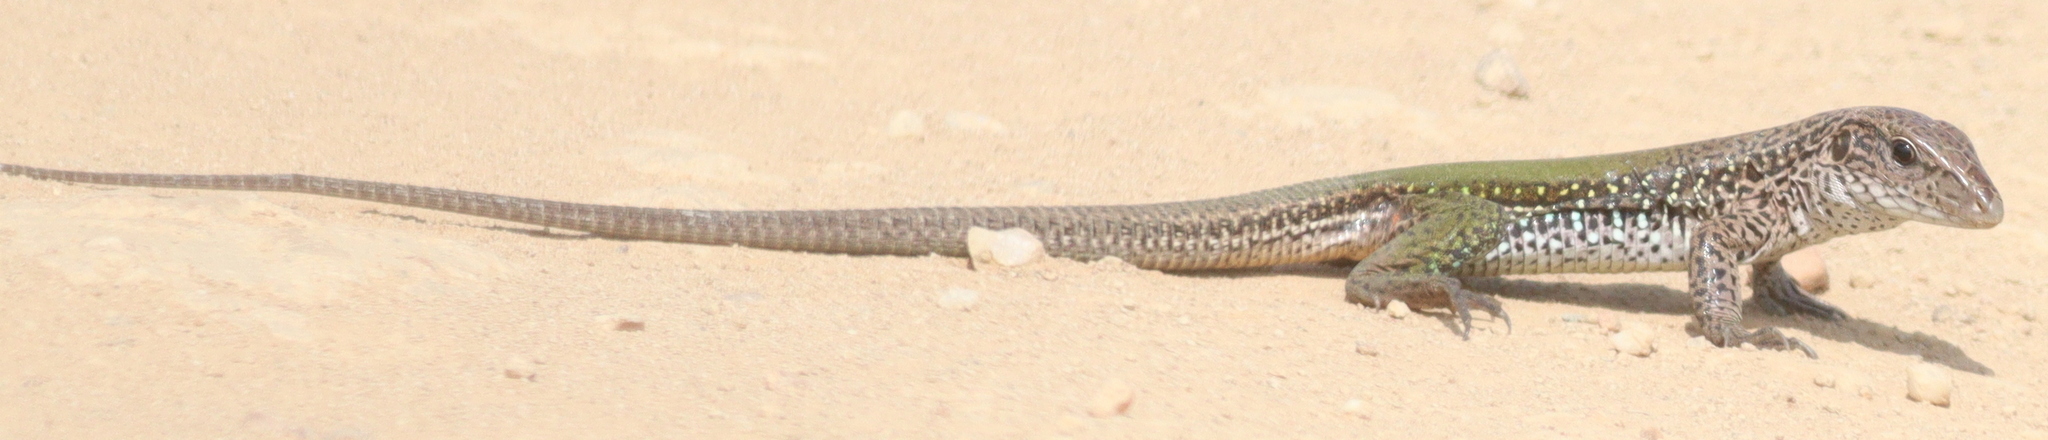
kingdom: Animalia
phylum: Chordata
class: Squamata
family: Teiidae
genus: Ameiva
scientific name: Ameiva ameiva
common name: Giant ameiva
